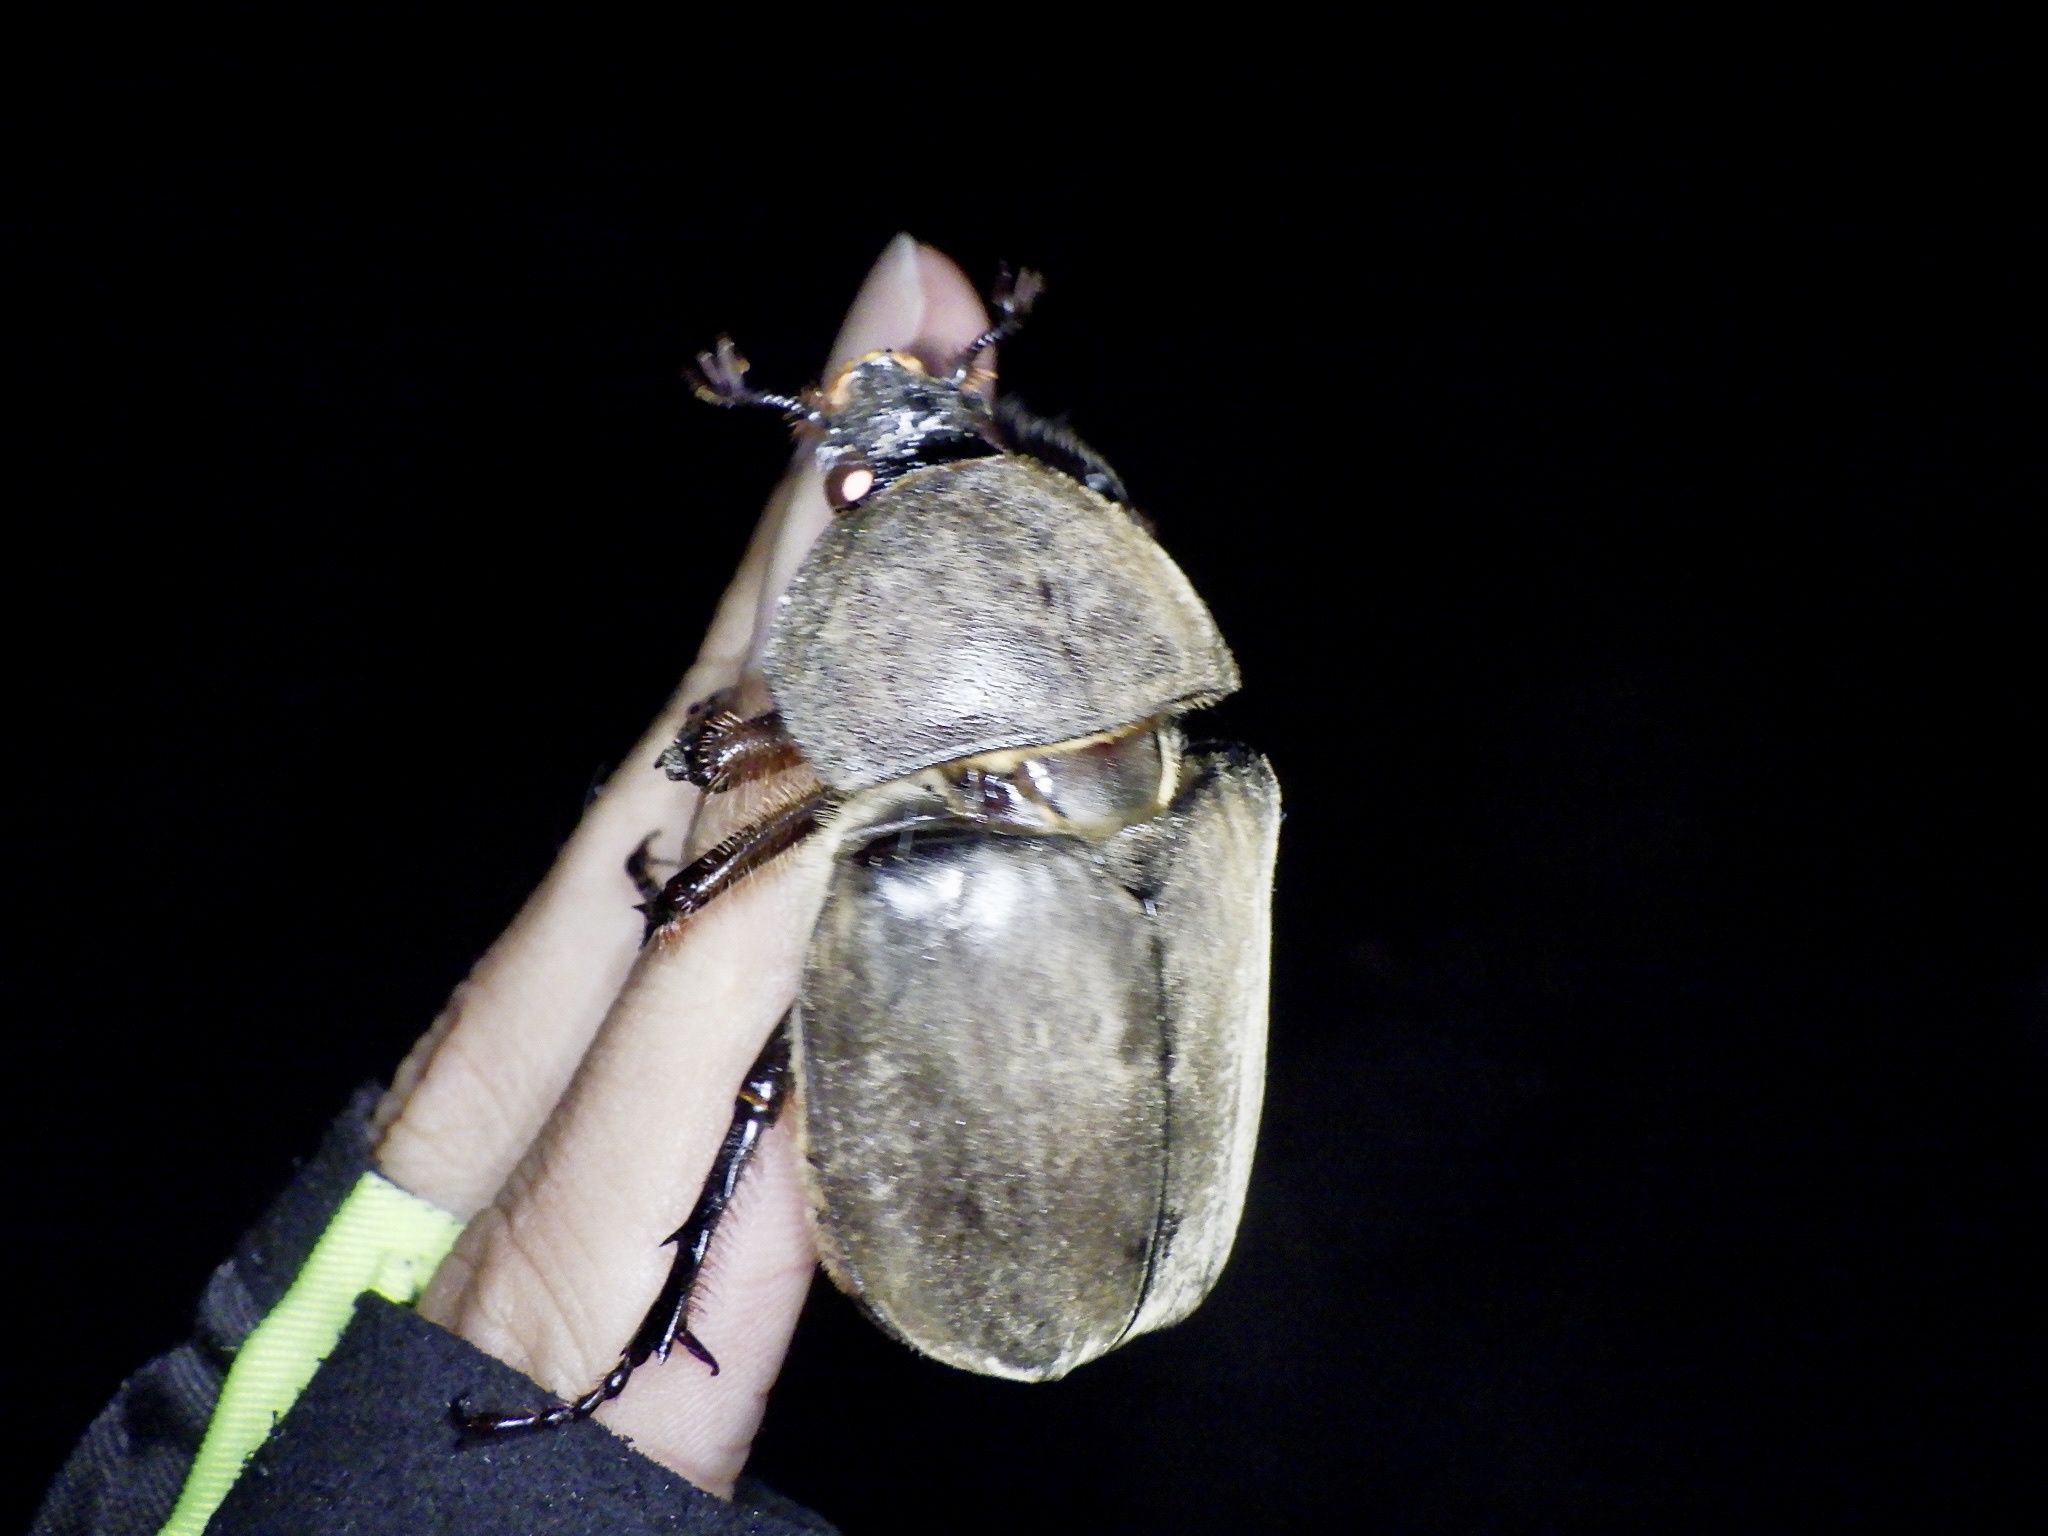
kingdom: Animalia
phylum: Arthropoda
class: Insecta
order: Coleoptera
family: Scarabaeidae
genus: Trypoxylus
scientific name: Trypoxylus dichotomus
